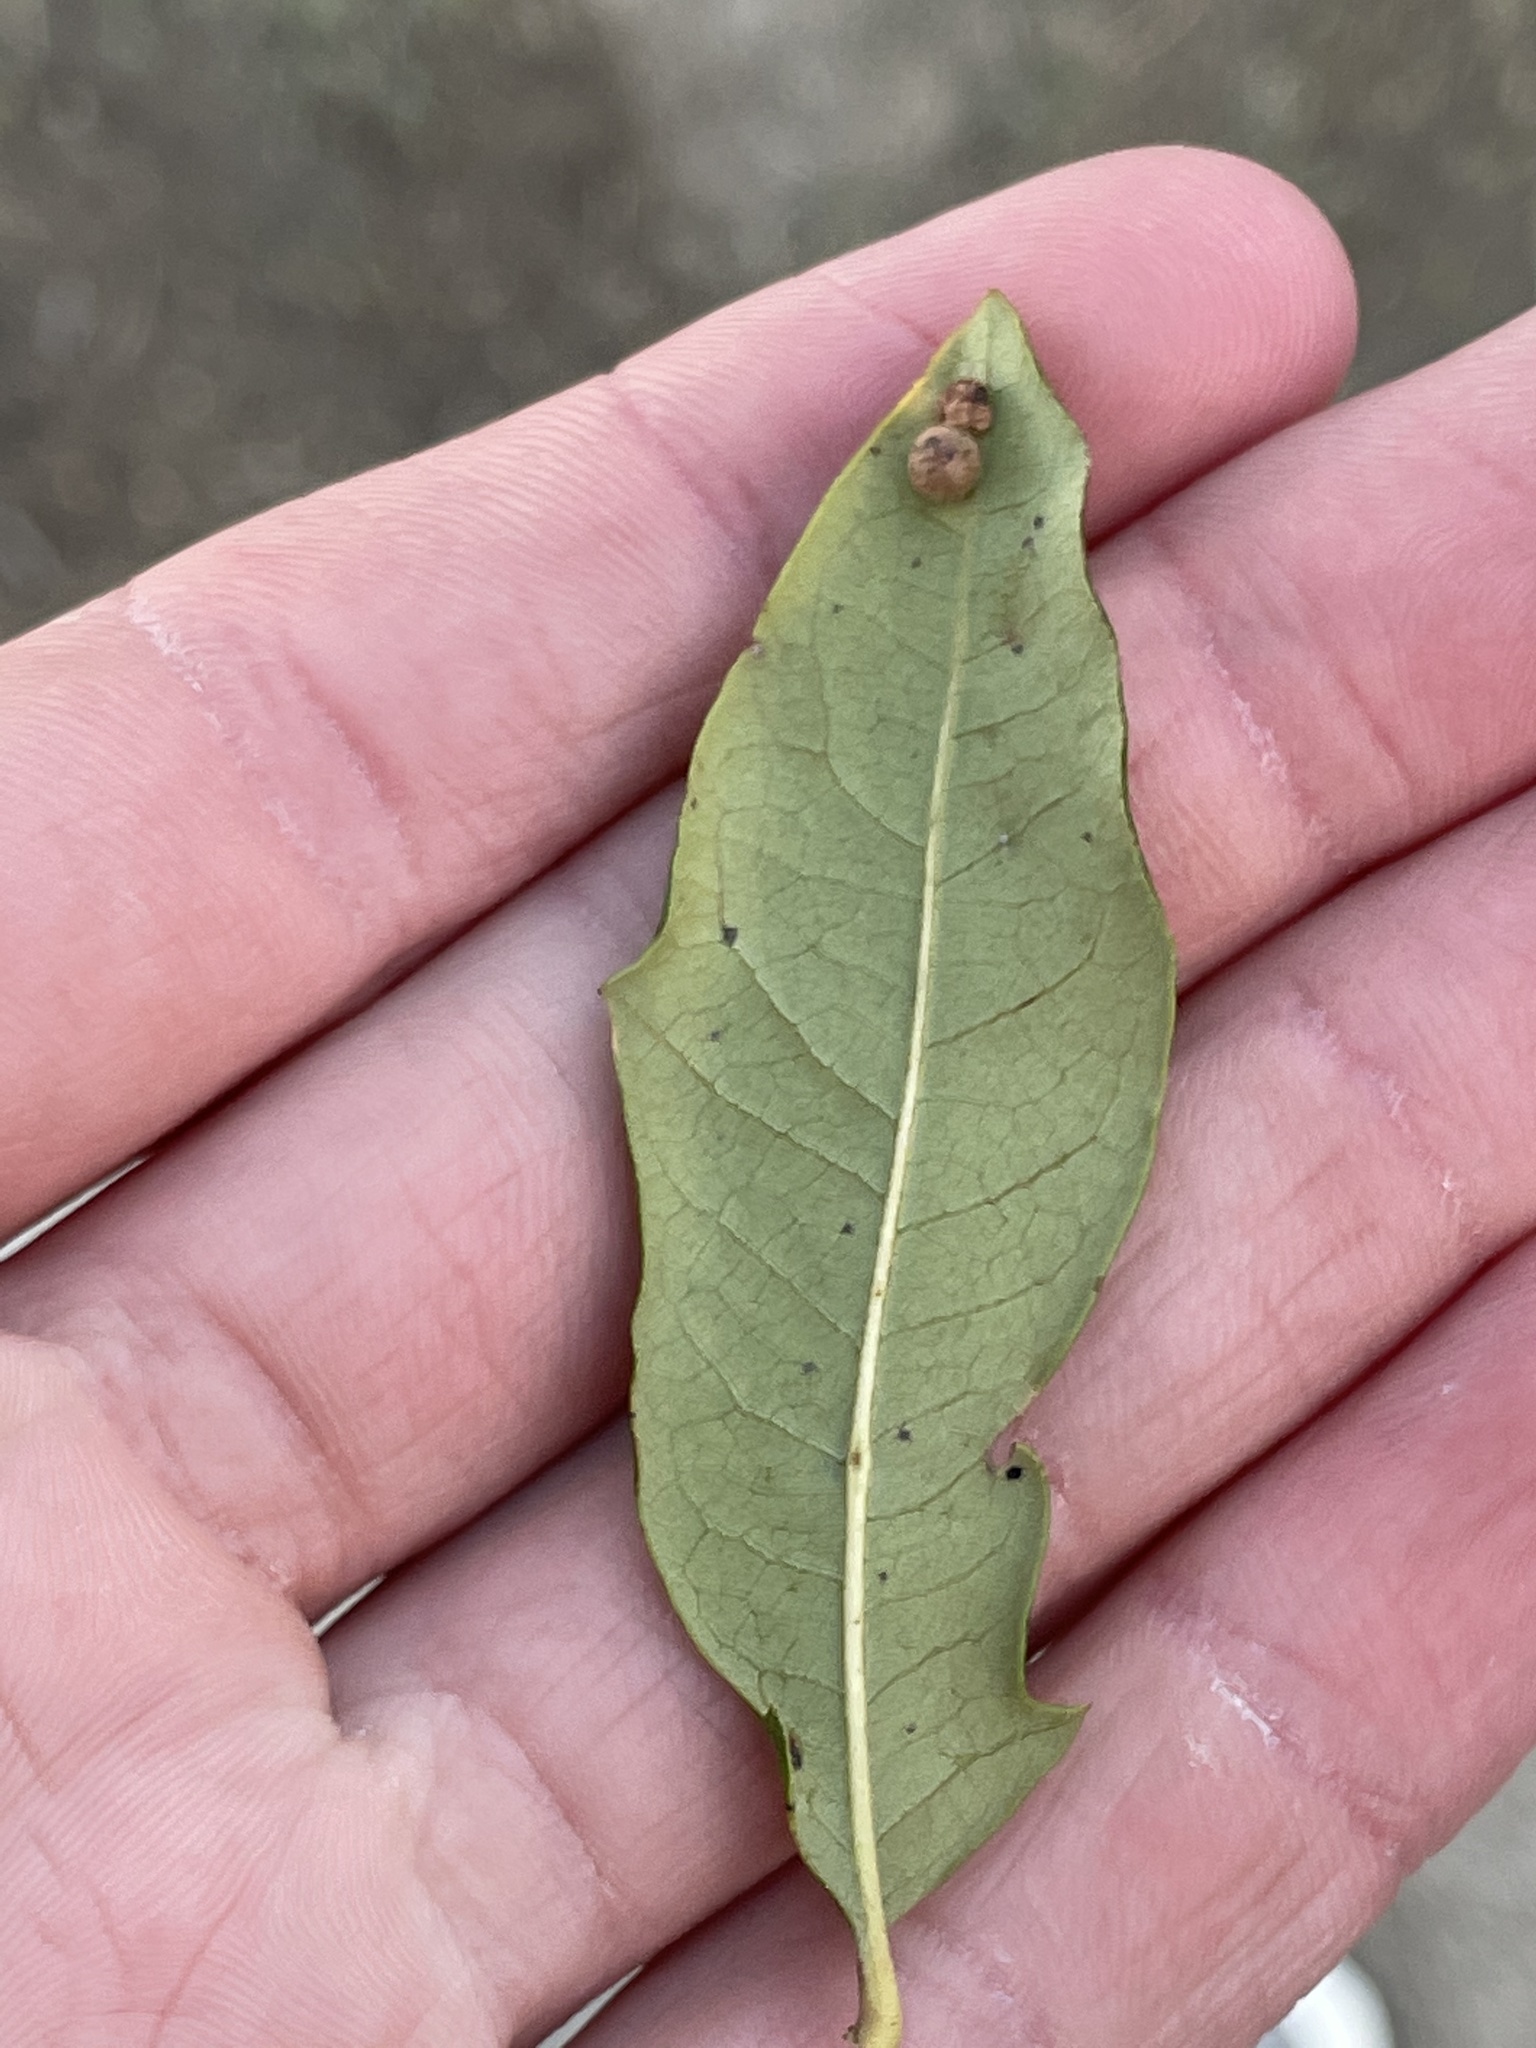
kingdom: Animalia
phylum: Arthropoda
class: Insecta
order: Hymenoptera
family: Cynipidae
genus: Belonocnema
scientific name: Belonocnema kinseyi
